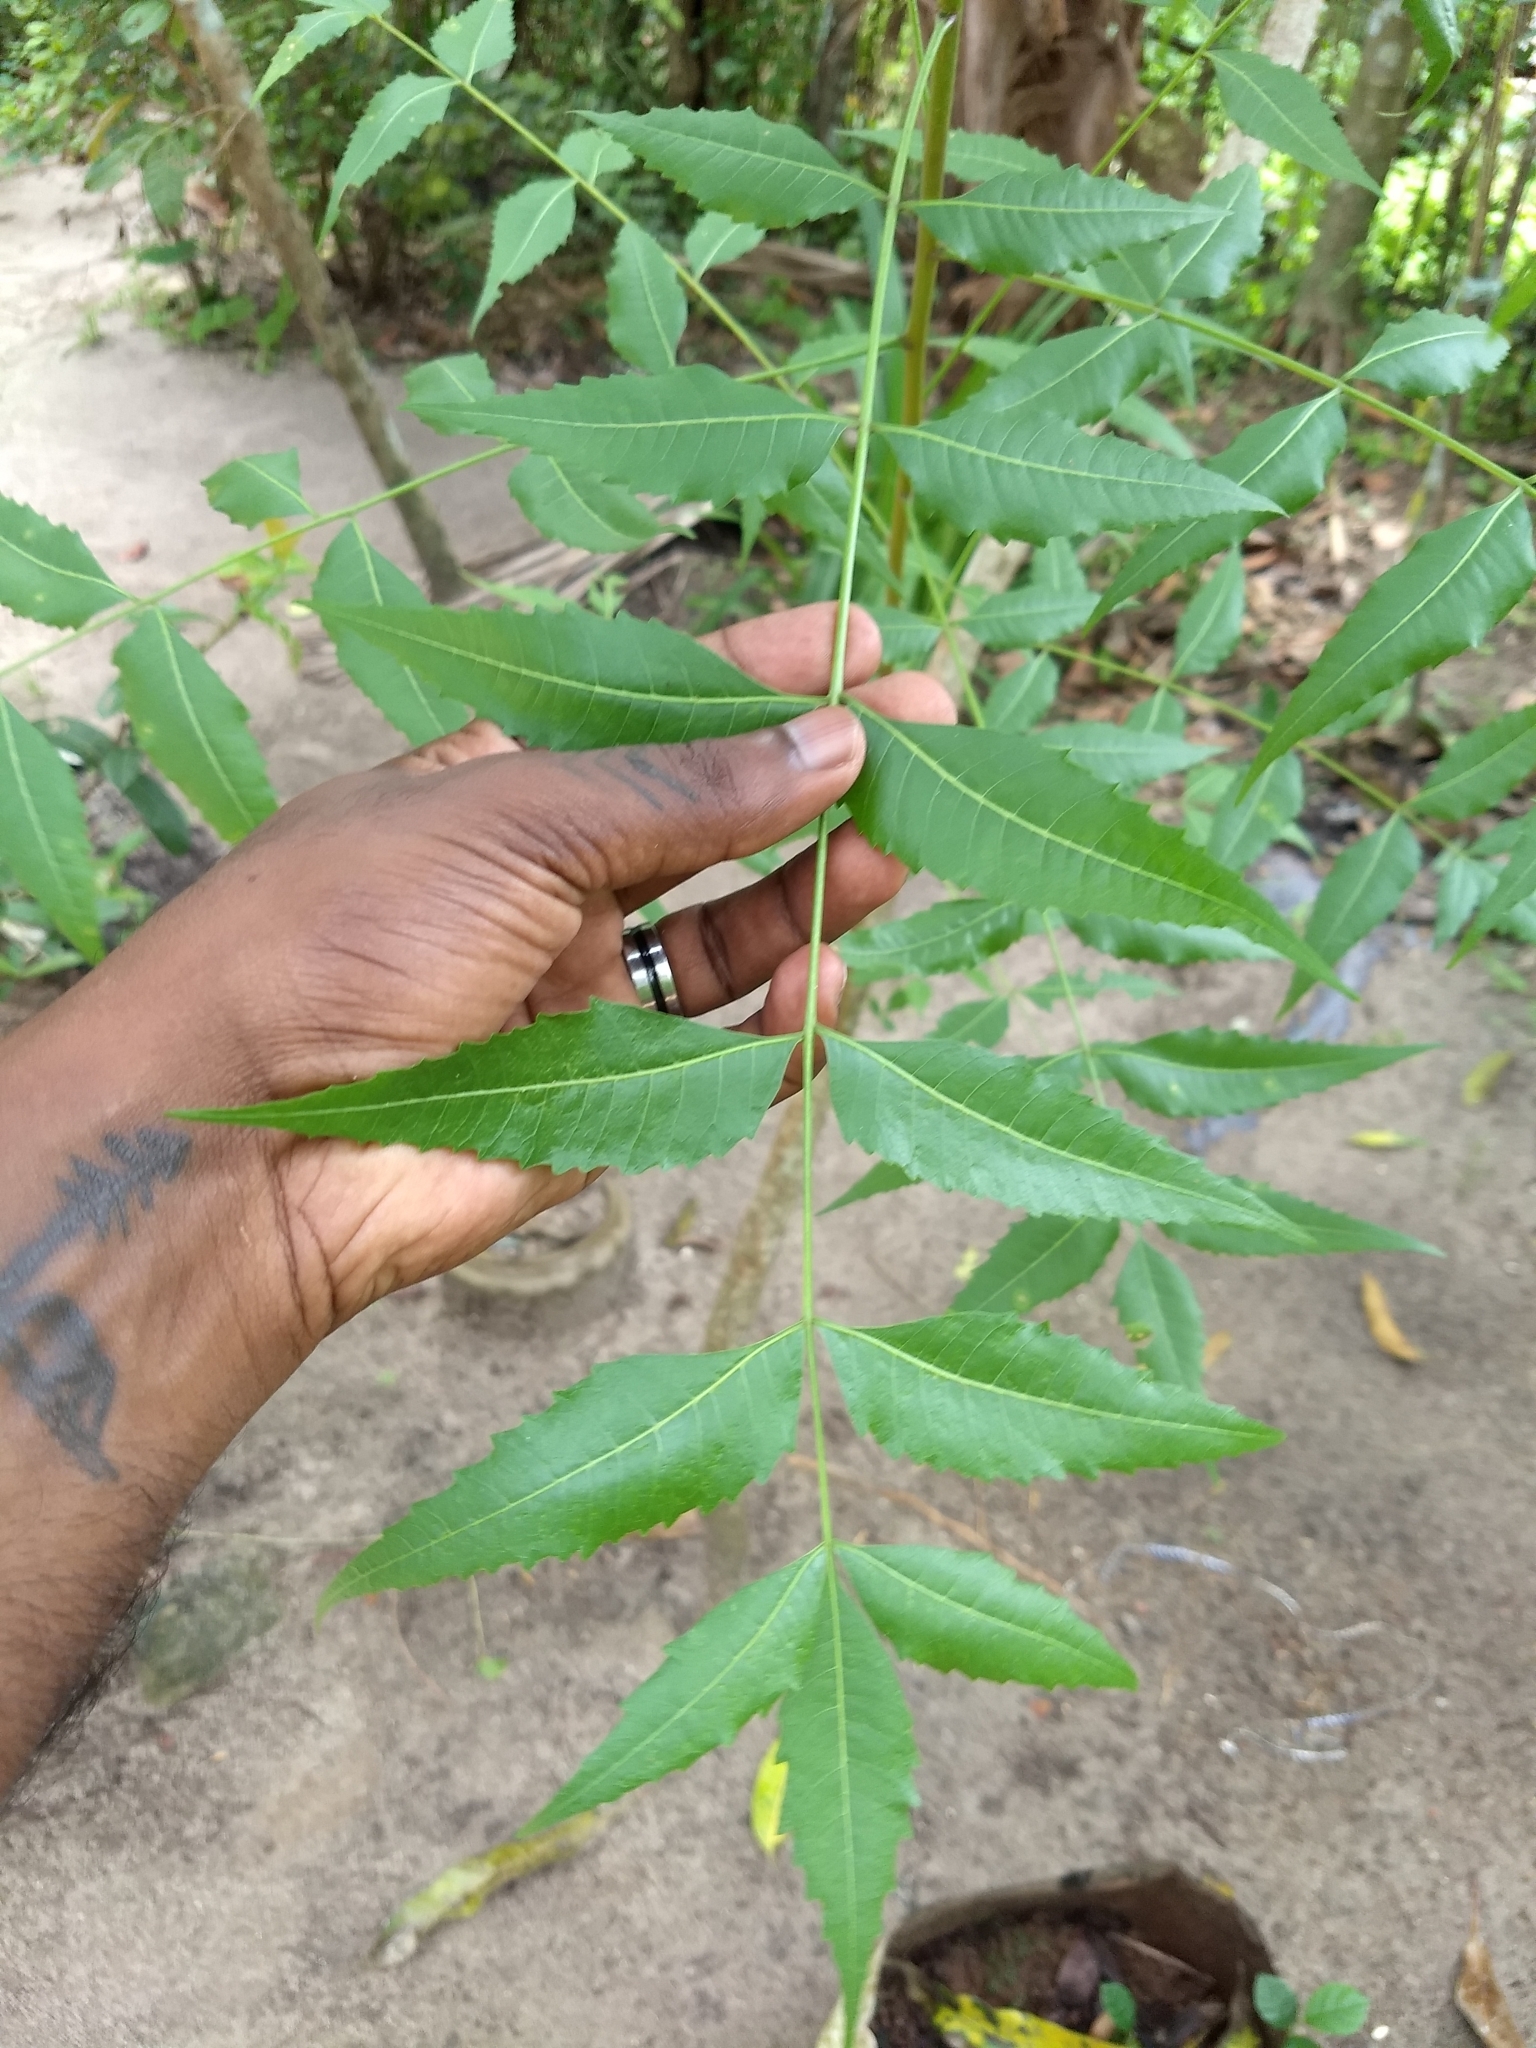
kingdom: Plantae
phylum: Tracheophyta
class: Magnoliopsida
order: Sapindales
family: Meliaceae
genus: Azadirachta
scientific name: Azadirachta indica
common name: Neem
